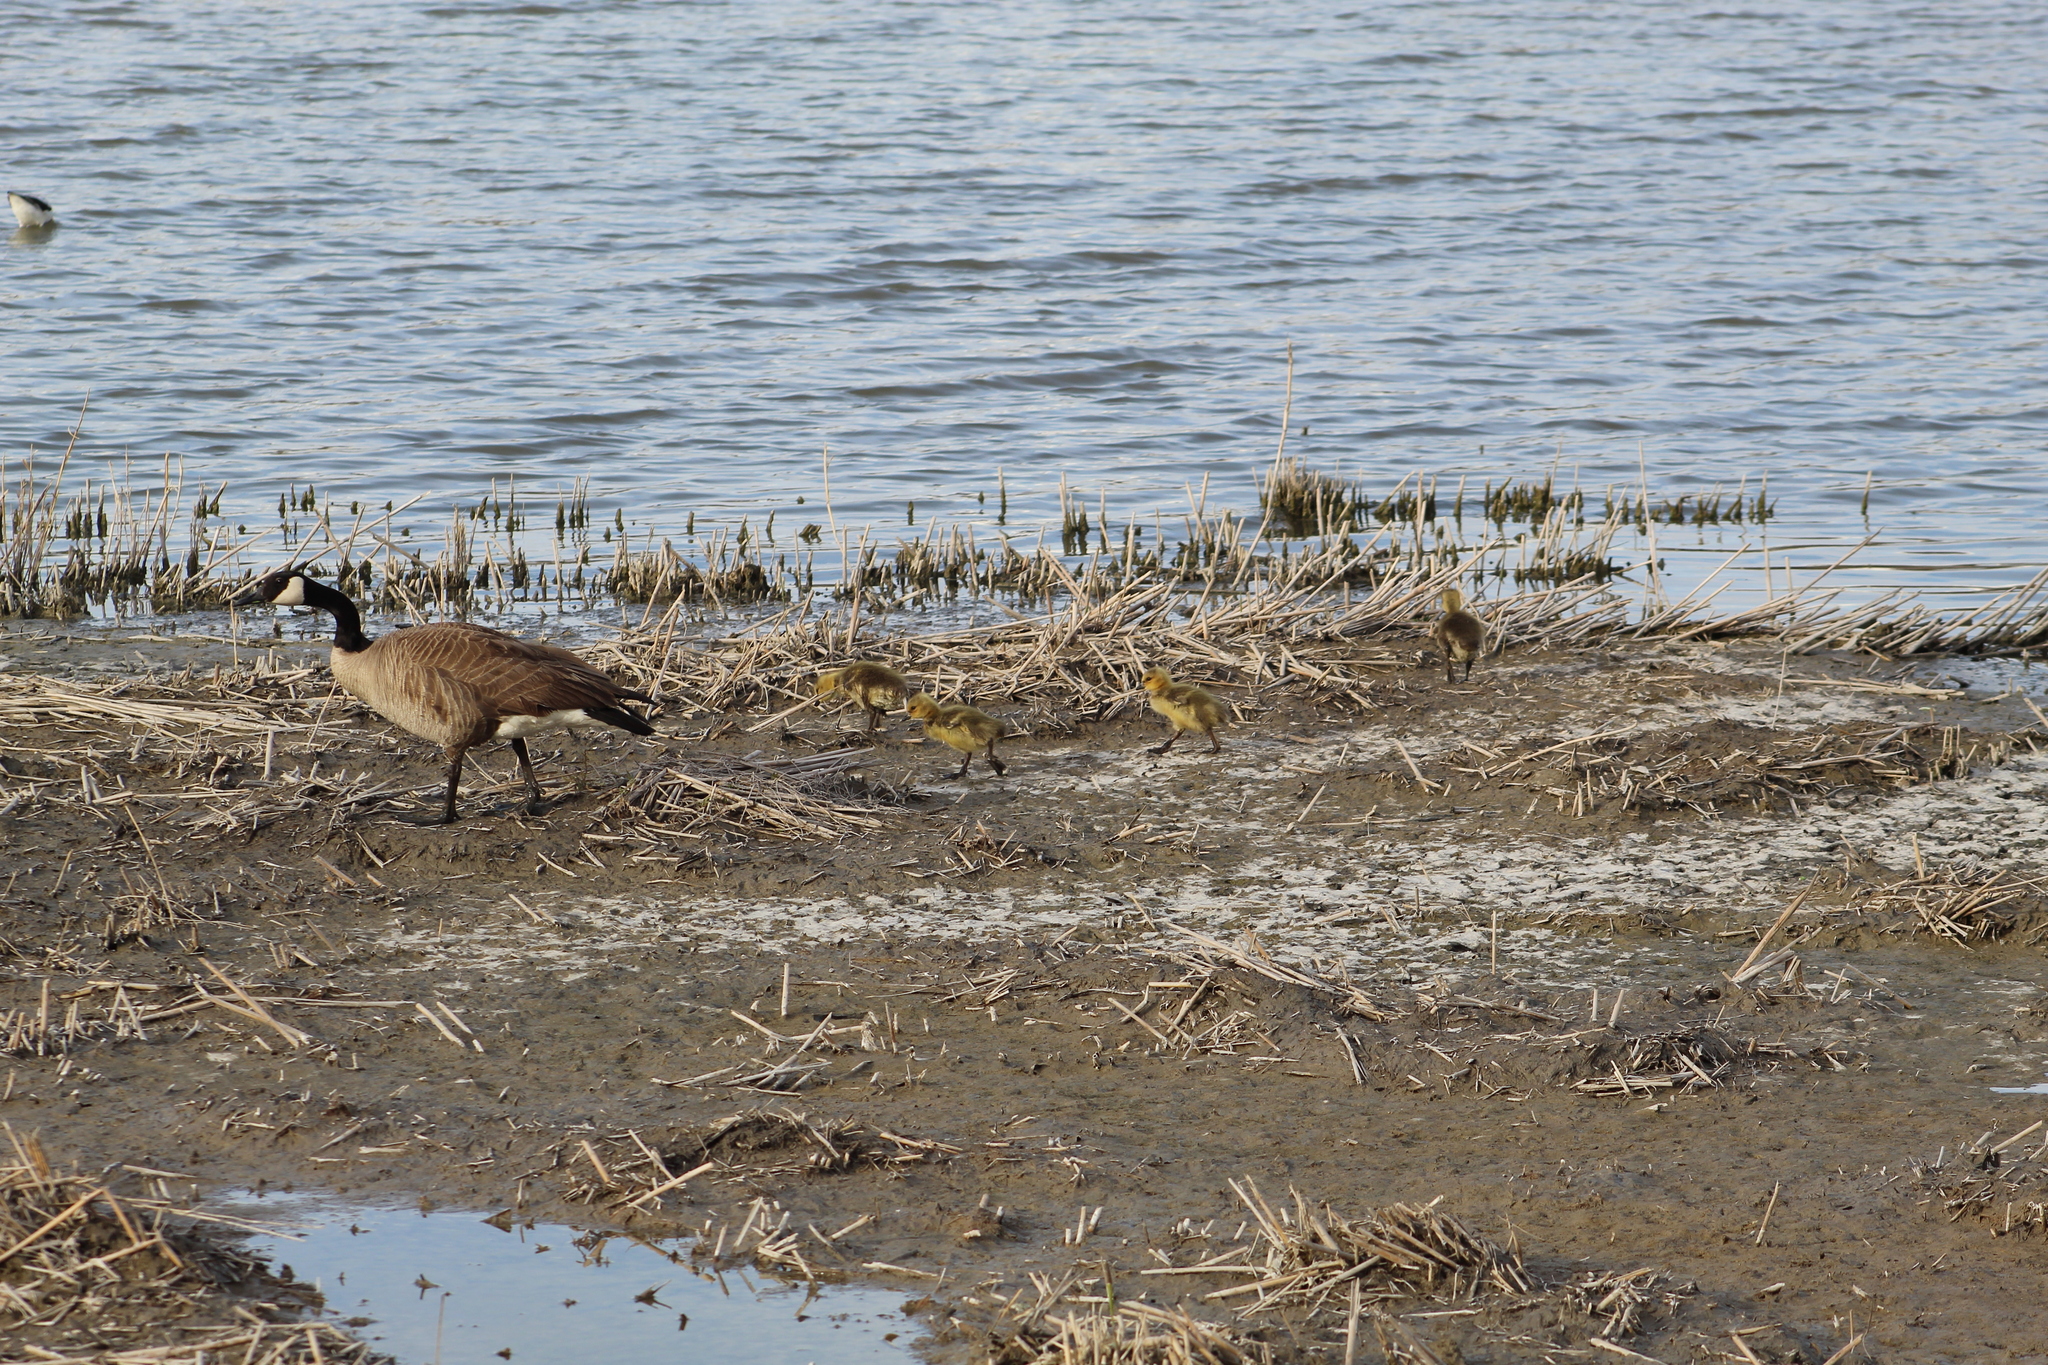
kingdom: Animalia
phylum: Chordata
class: Aves
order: Anseriformes
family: Anatidae
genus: Branta
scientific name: Branta canadensis
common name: Canada goose
